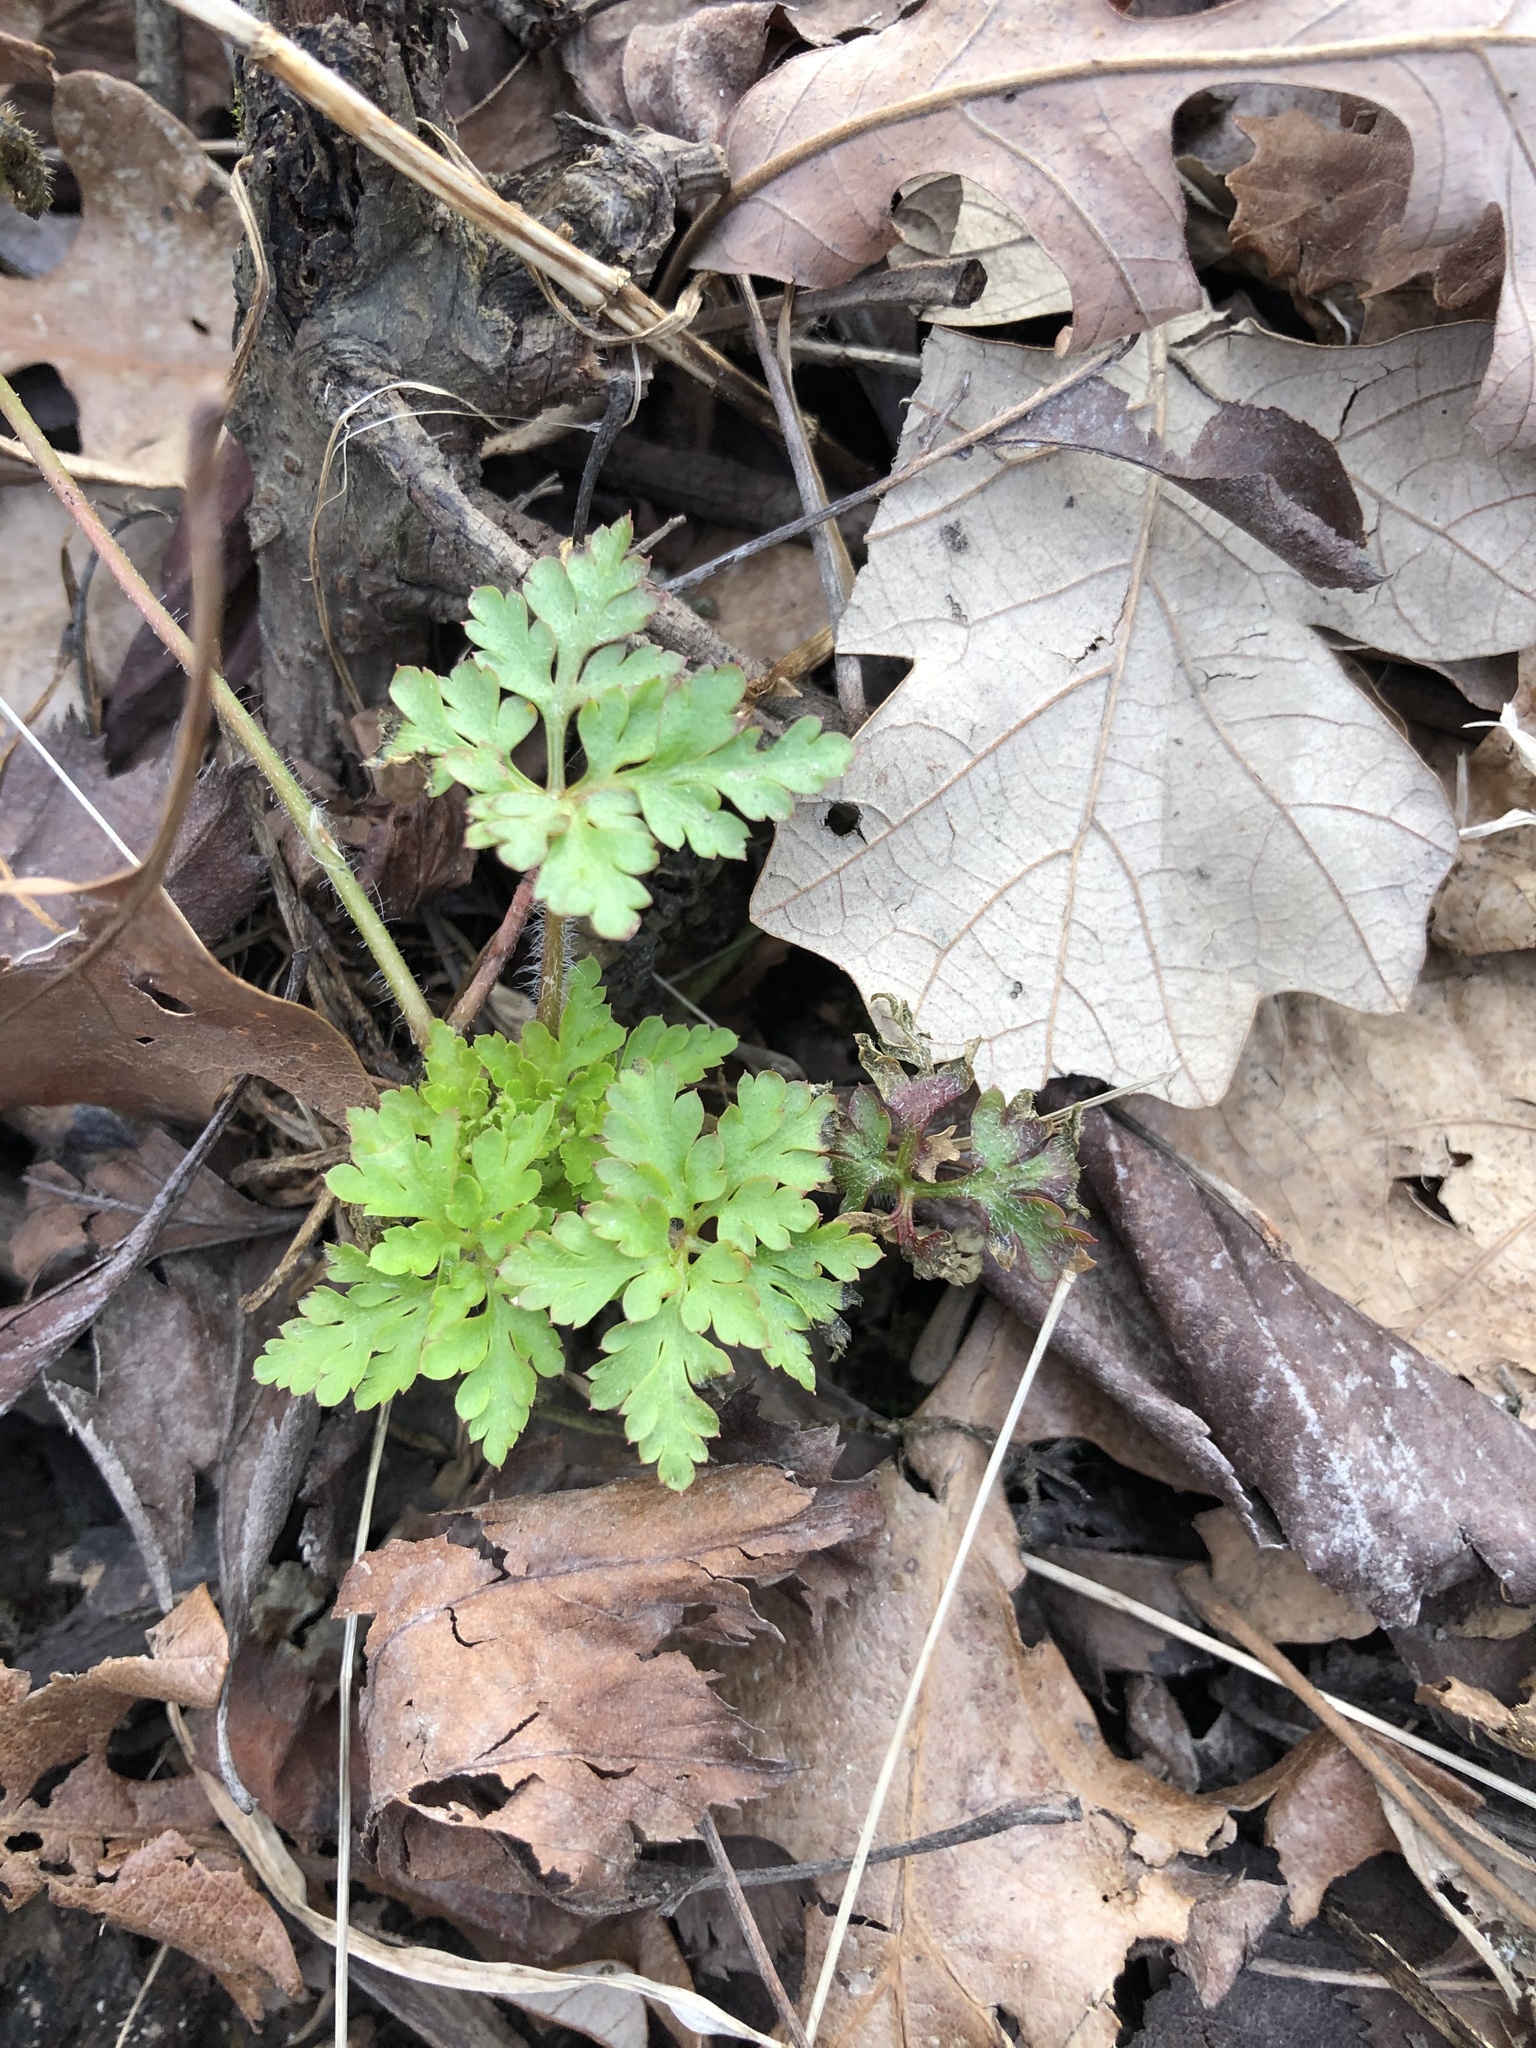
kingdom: Plantae
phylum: Tracheophyta
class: Magnoliopsida
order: Geraniales
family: Geraniaceae
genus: Geranium
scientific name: Geranium robertianum
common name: Herb-robert
